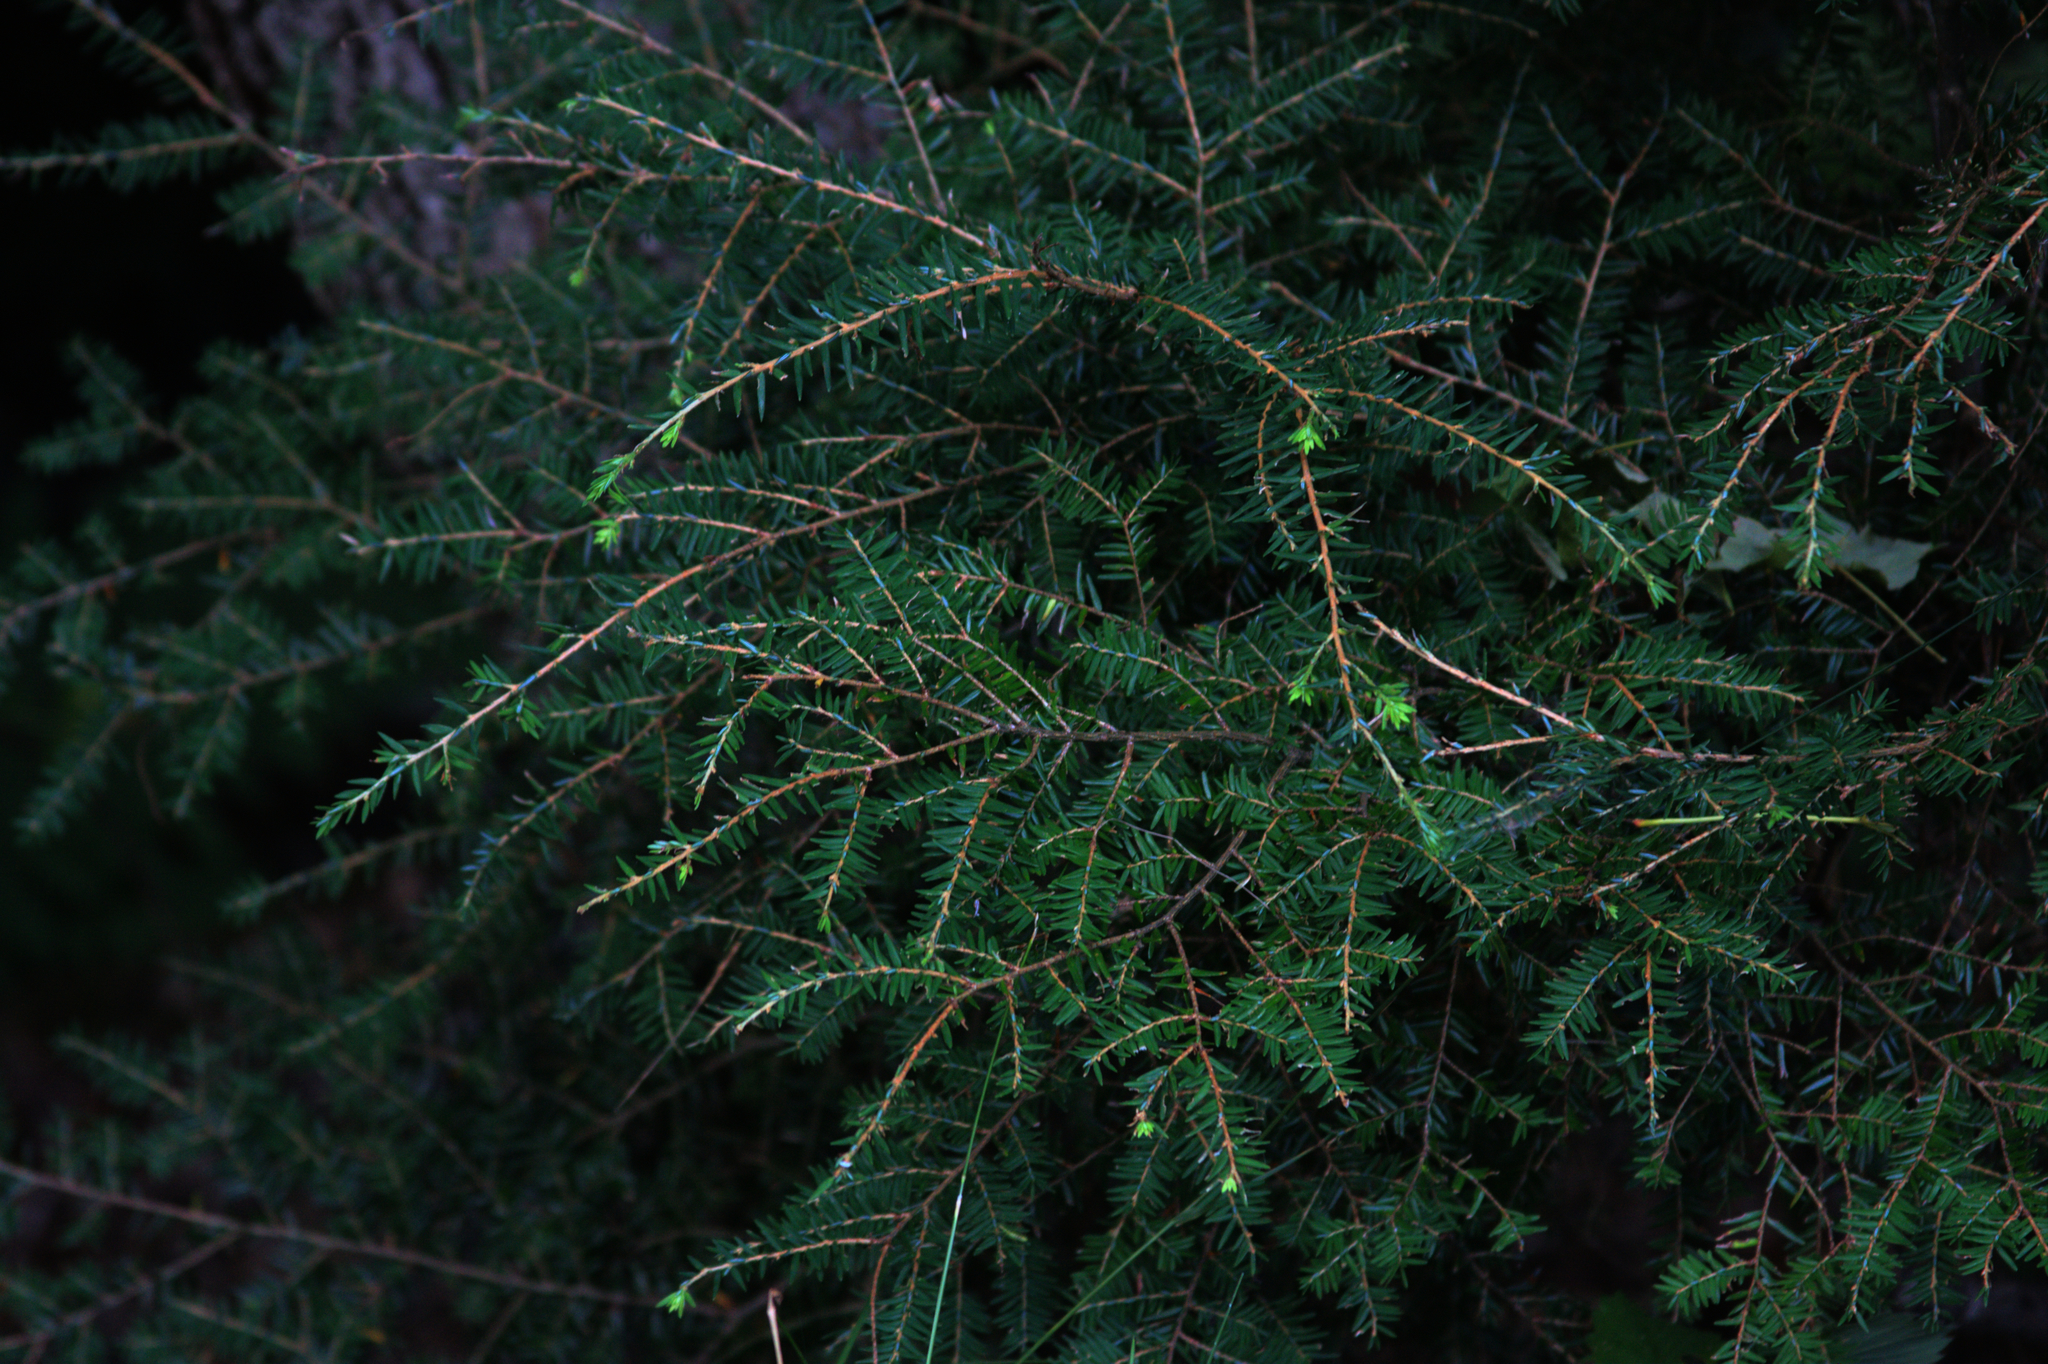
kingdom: Plantae
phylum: Tracheophyta
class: Pinopsida
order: Pinales
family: Pinaceae
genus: Tsuga
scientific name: Tsuga canadensis
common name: Eastern hemlock
